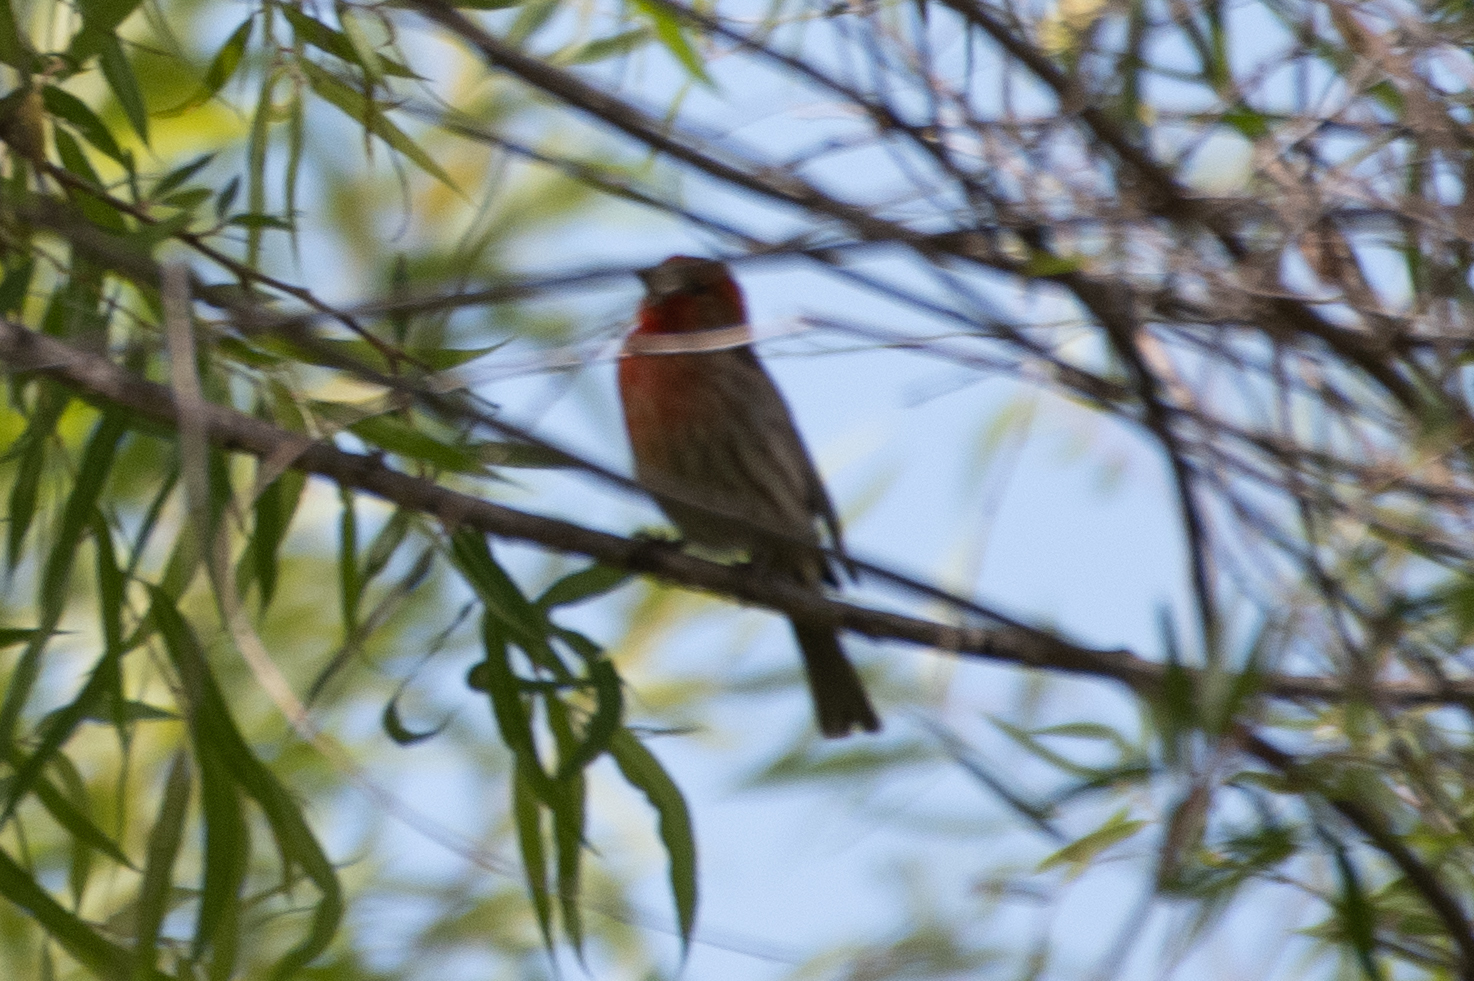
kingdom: Animalia
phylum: Chordata
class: Aves
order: Passeriformes
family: Fringillidae
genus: Haemorhous
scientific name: Haemorhous mexicanus
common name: House finch
